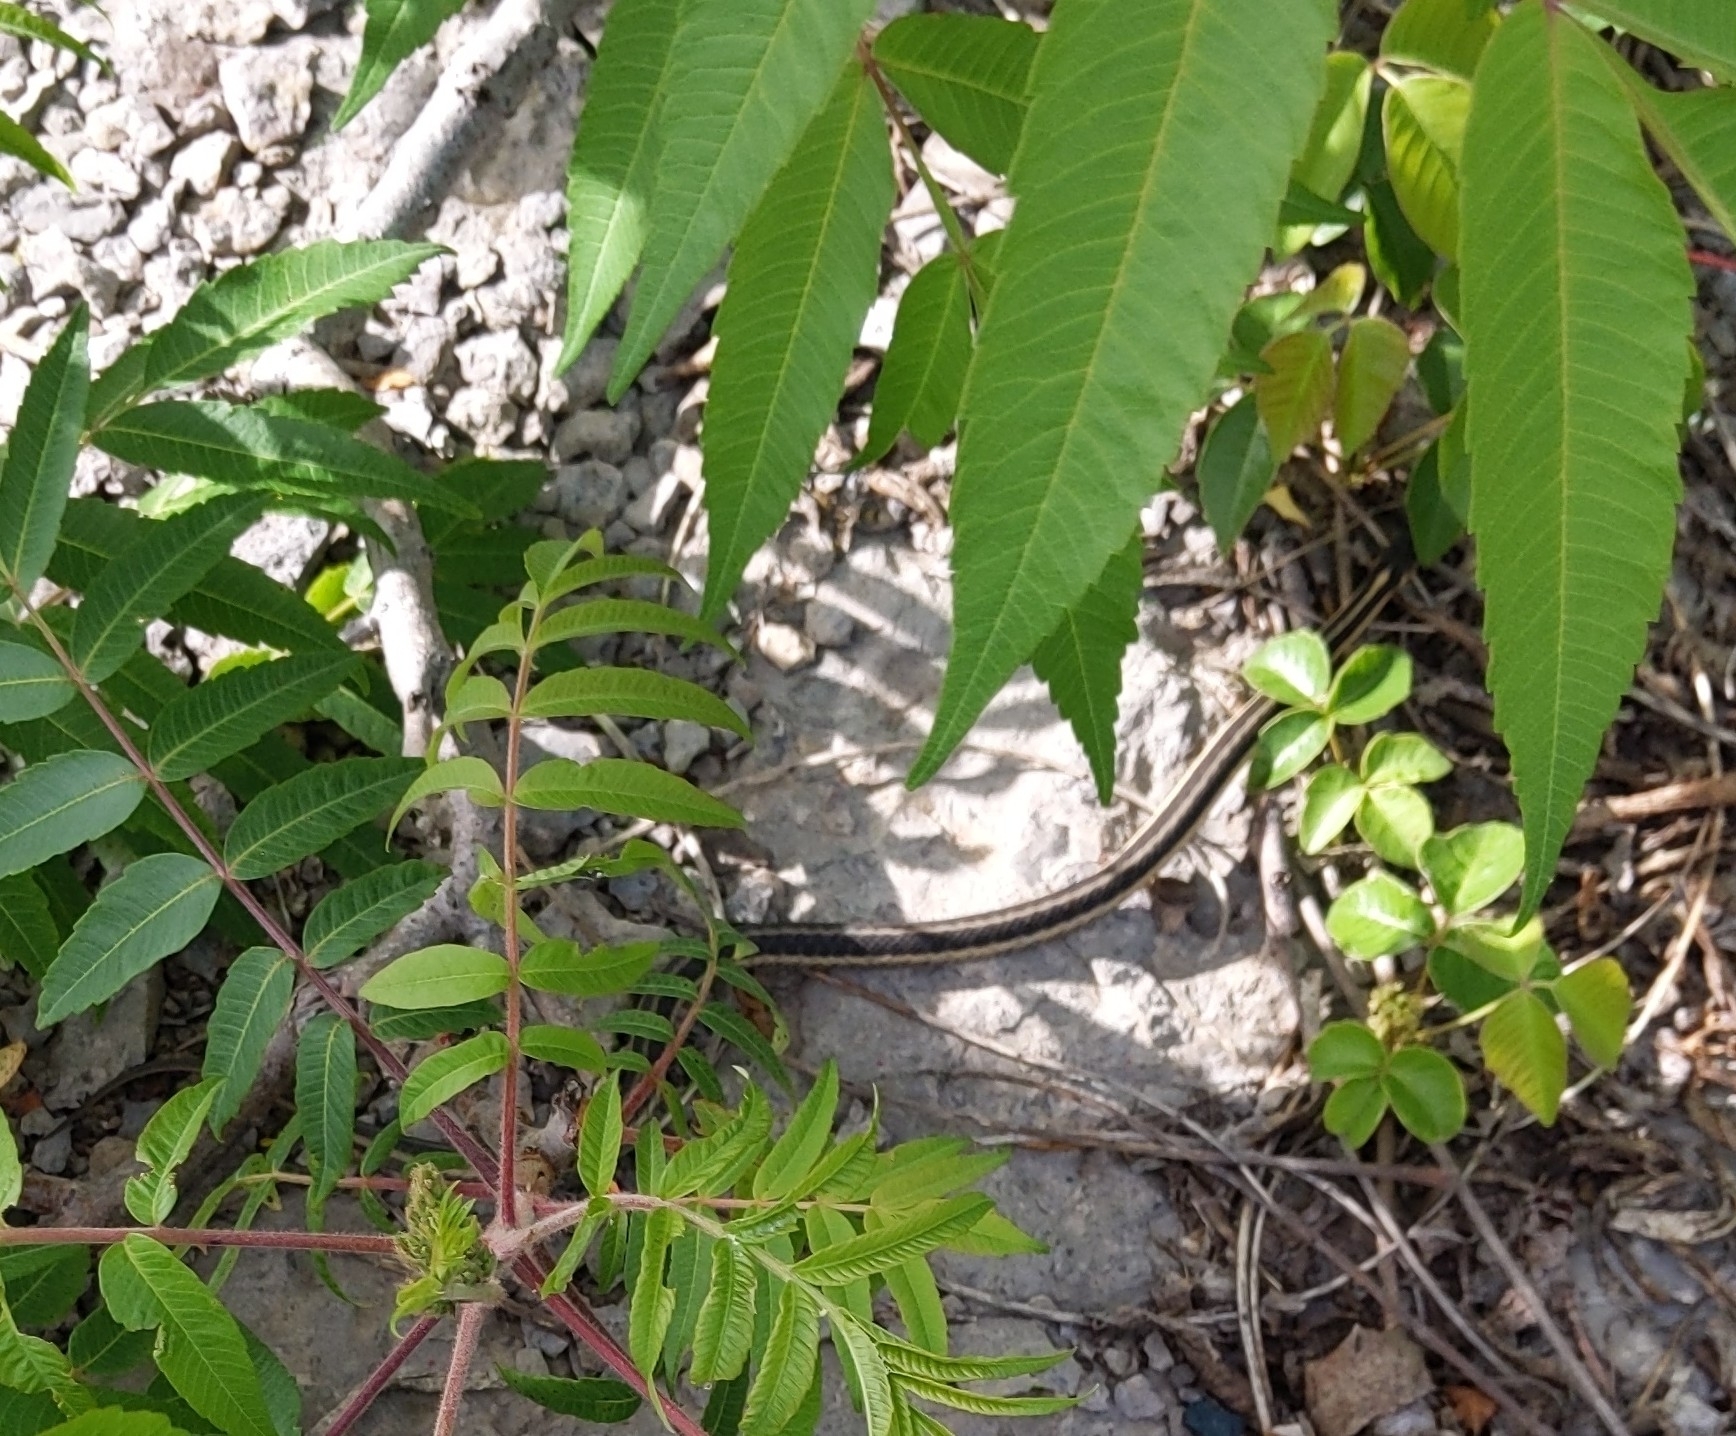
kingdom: Animalia
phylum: Chordata
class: Squamata
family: Colubridae
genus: Thamnophis
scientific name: Thamnophis sirtalis
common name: Common garter snake
